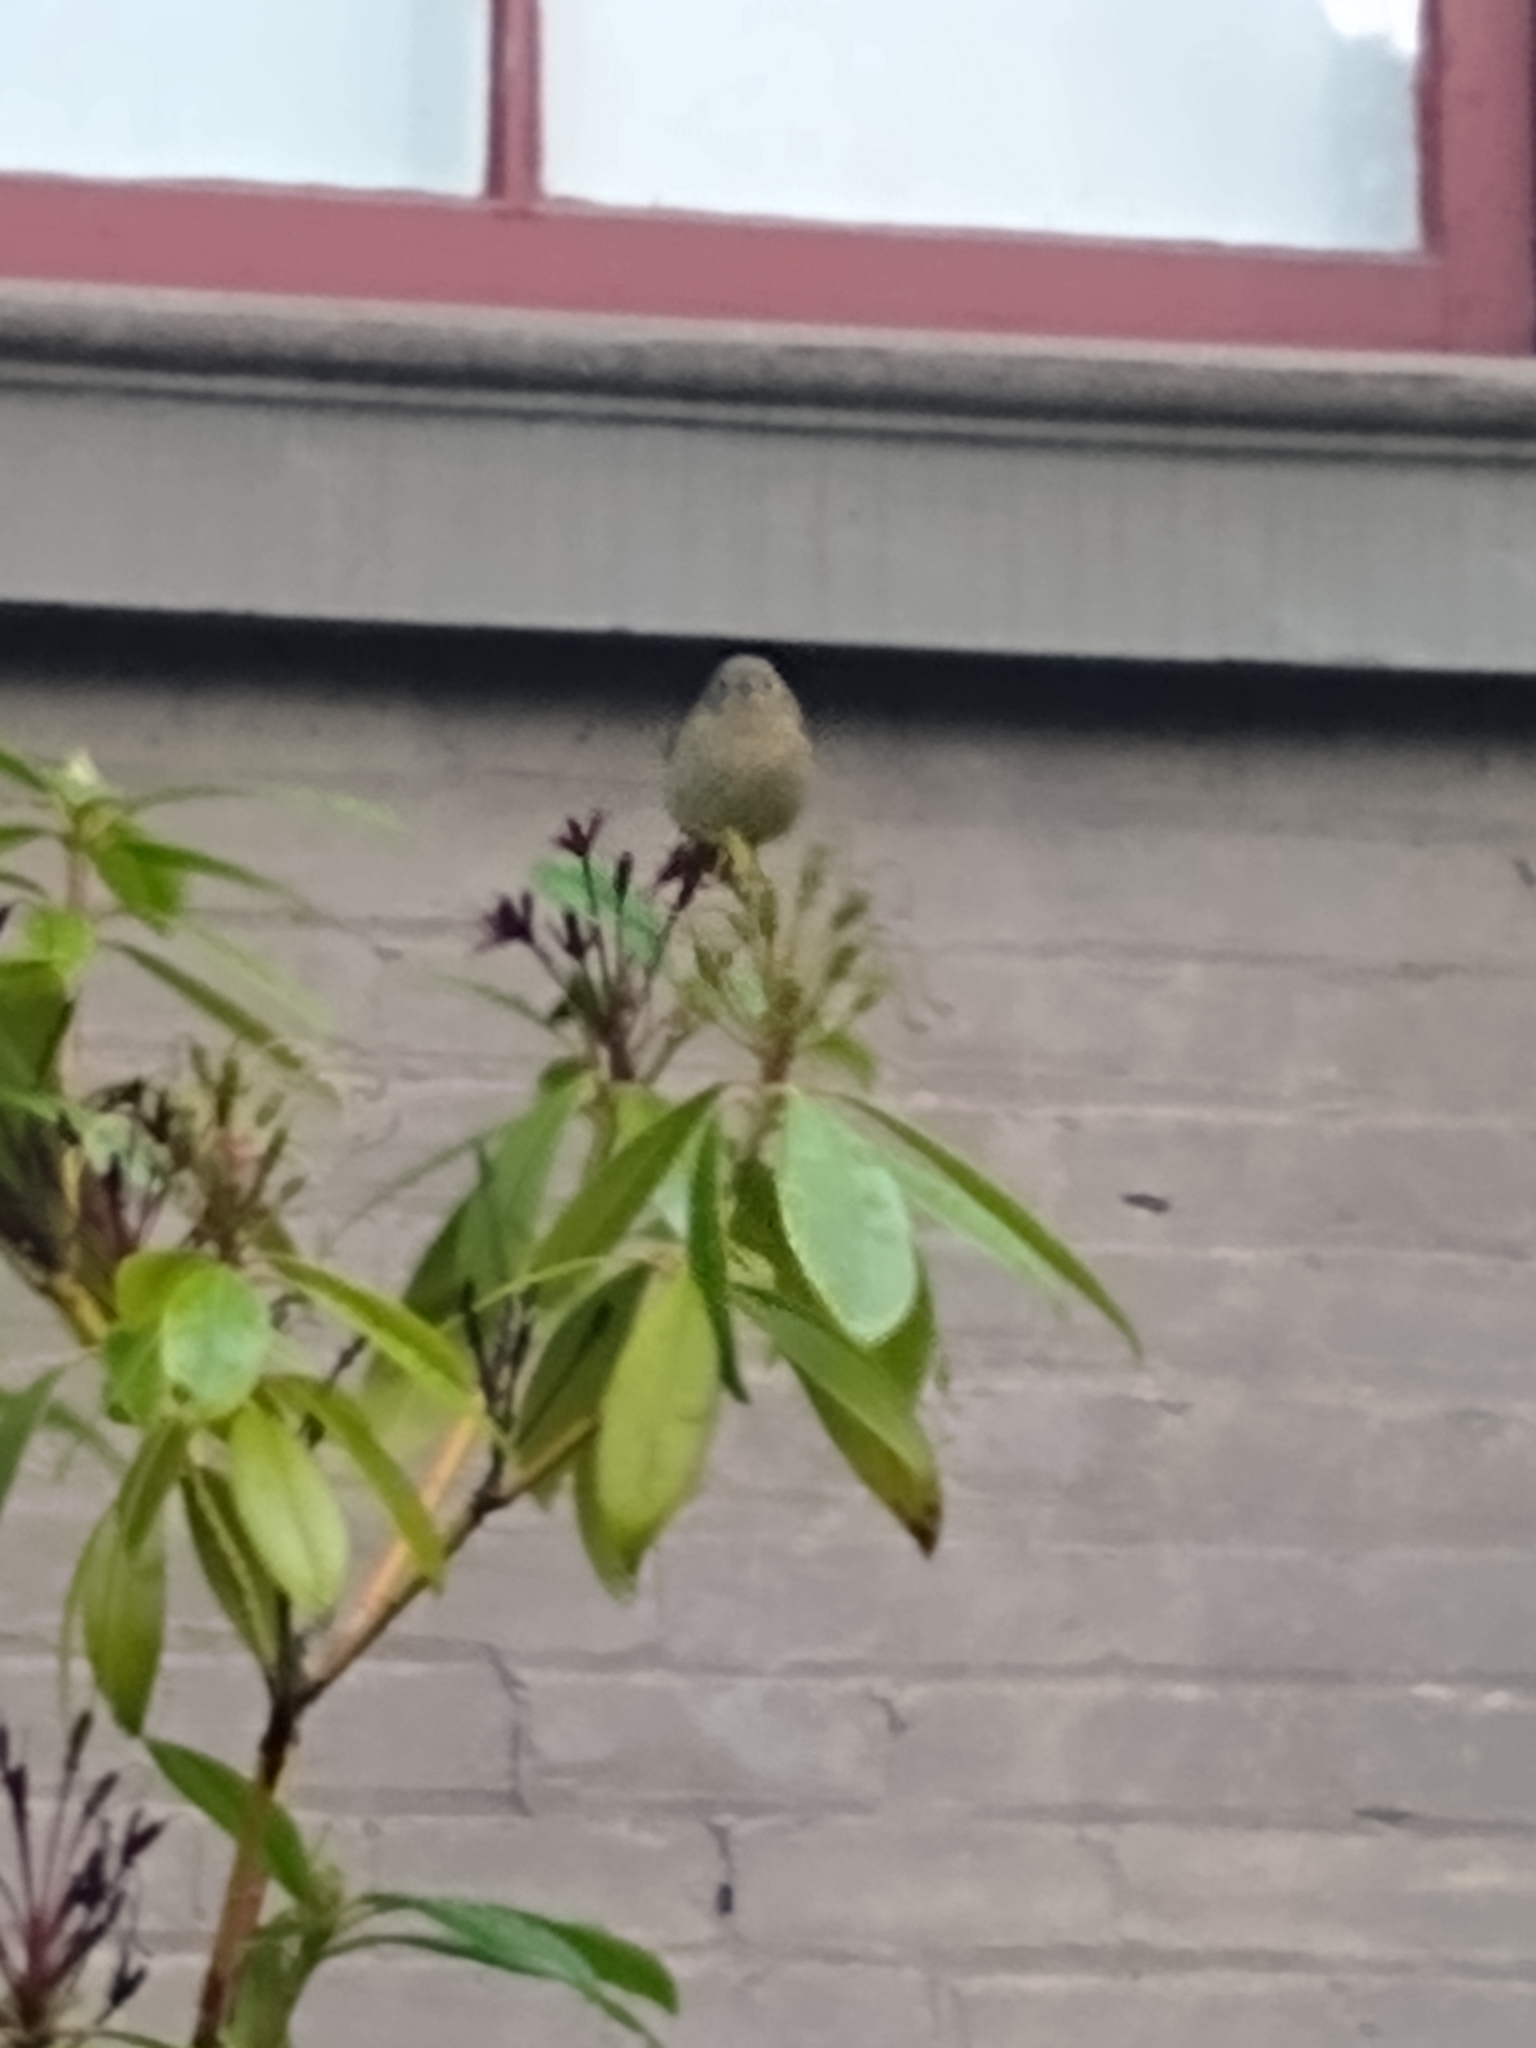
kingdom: Animalia
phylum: Chordata
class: Aves
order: Passeriformes
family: Regulidae
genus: Regulus
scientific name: Regulus calendula
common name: Ruby-crowned kinglet
